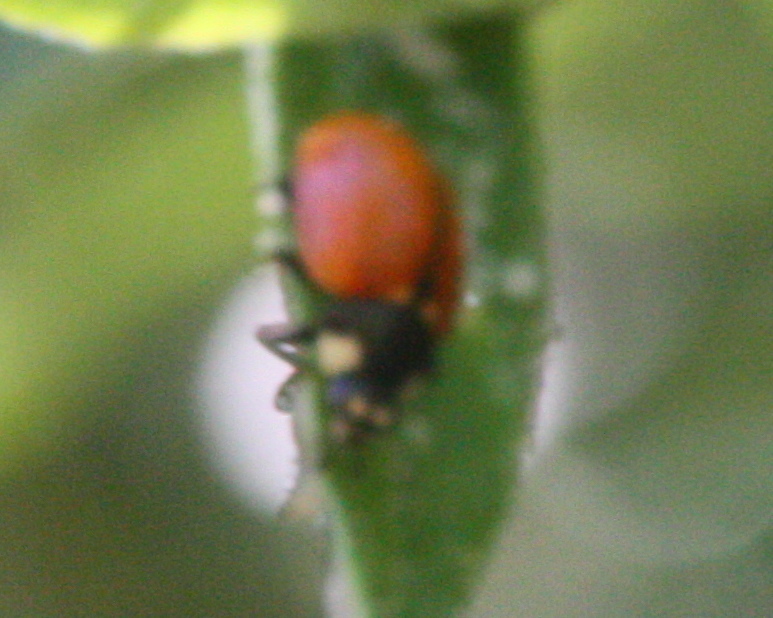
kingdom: Animalia
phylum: Arthropoda
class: Insecta
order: Coleoptera
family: Coccinellidae
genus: Coccinella
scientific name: Coccinella californica
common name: Lady beetle
